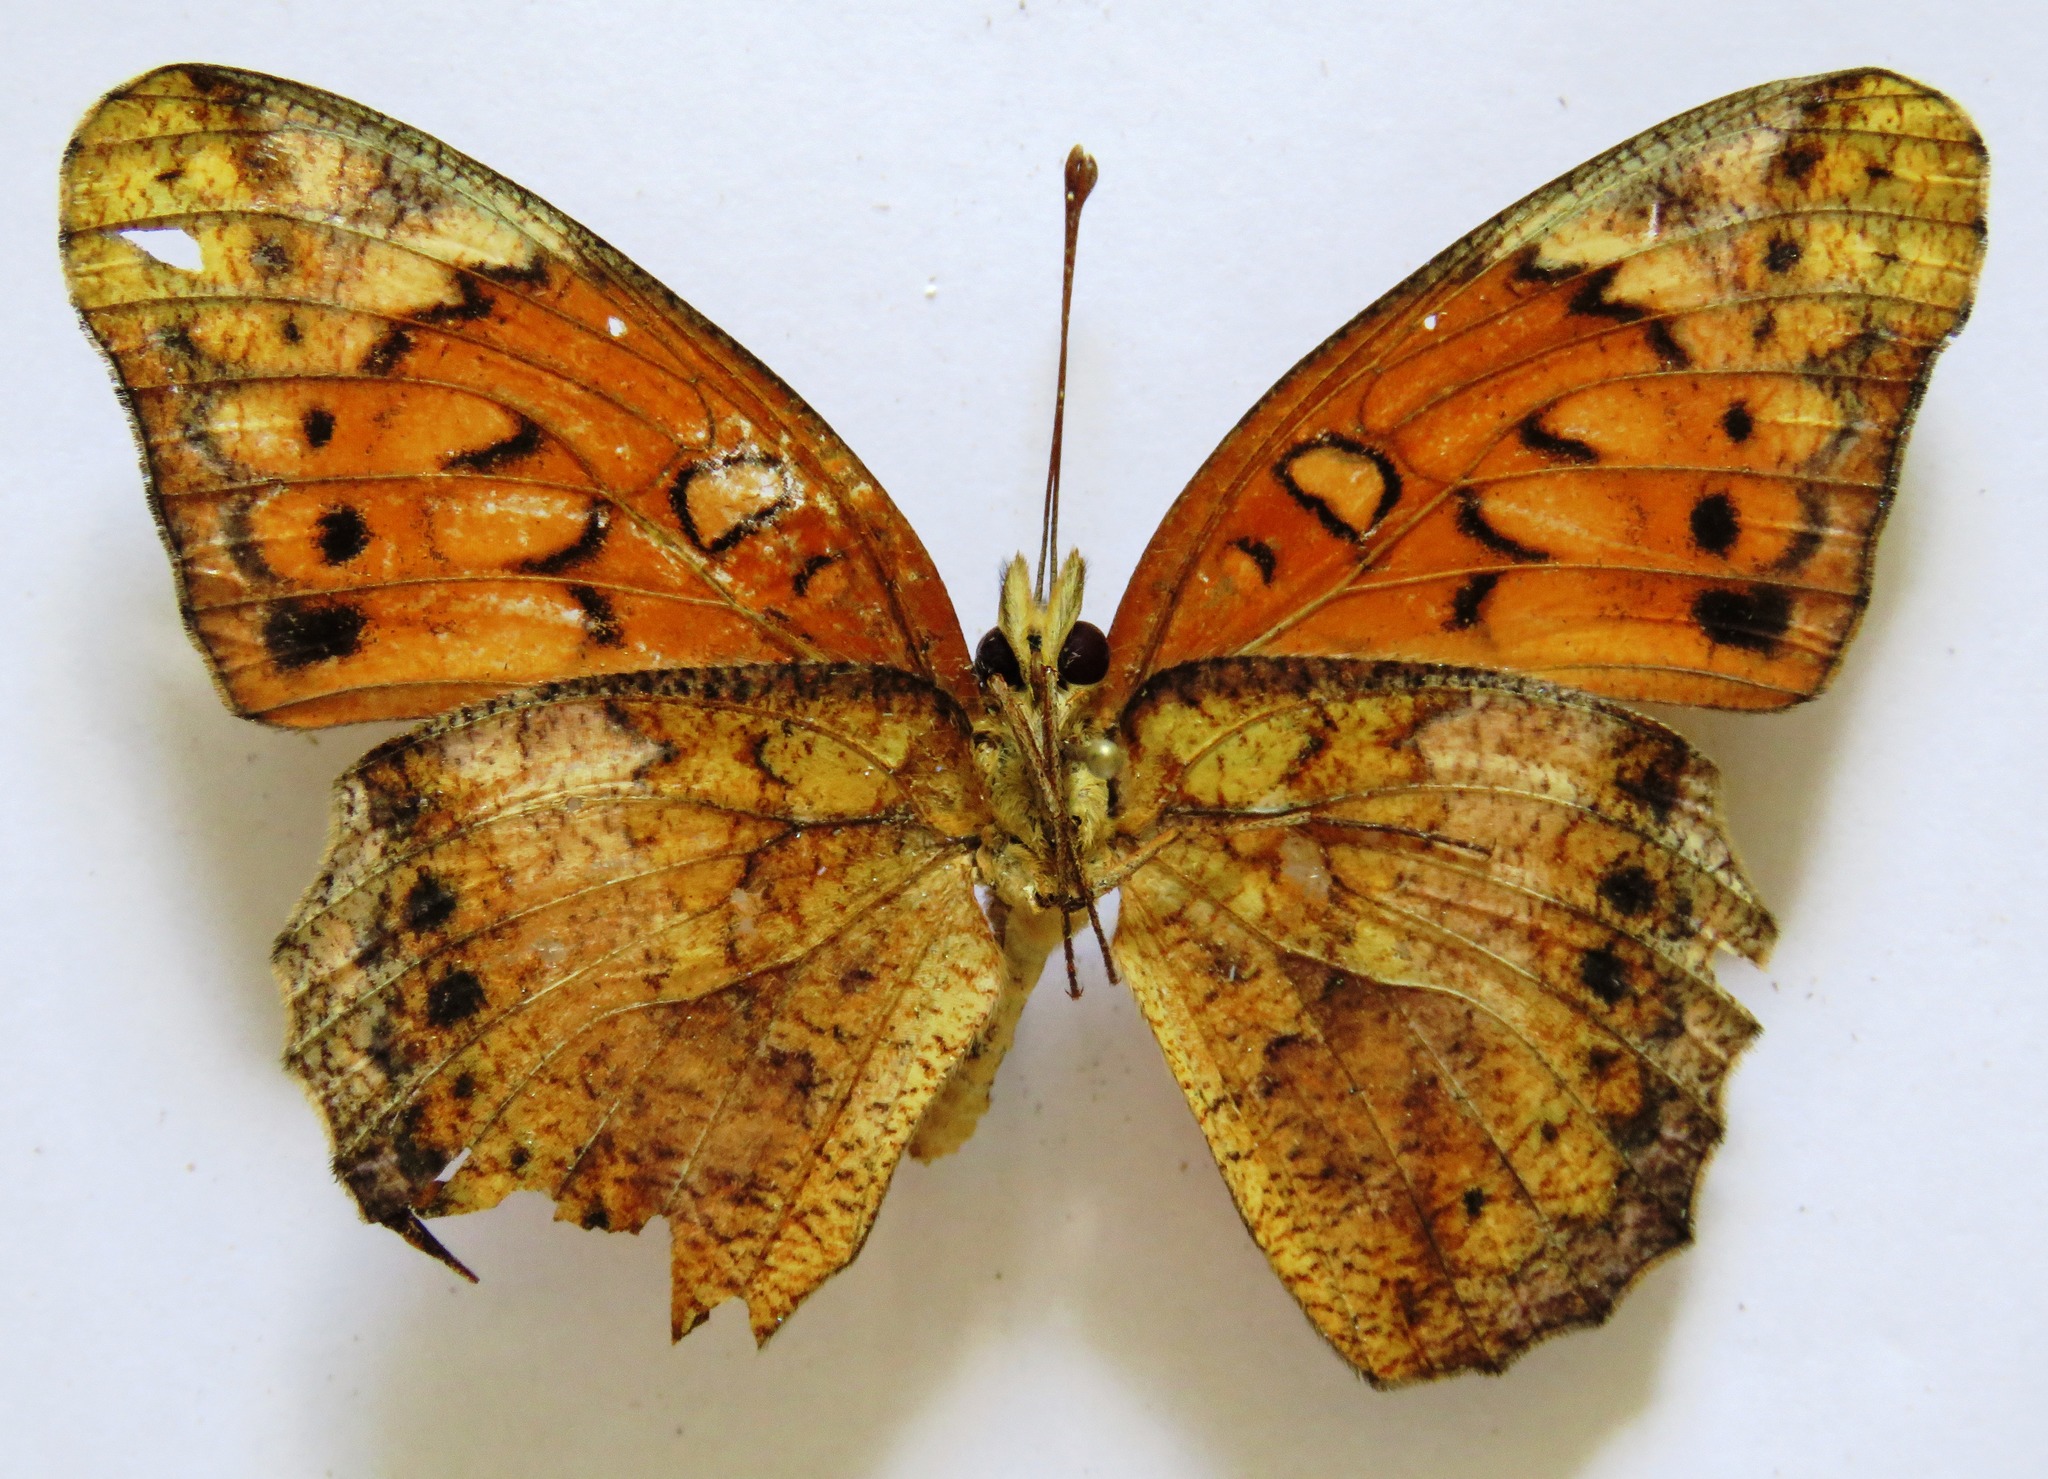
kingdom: Animalia
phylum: Arthropoda
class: Insecta
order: Lepidoptera
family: Nymphalidae
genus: Euptoieta
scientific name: Euptoieta hegesia
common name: Mexican fritillary
